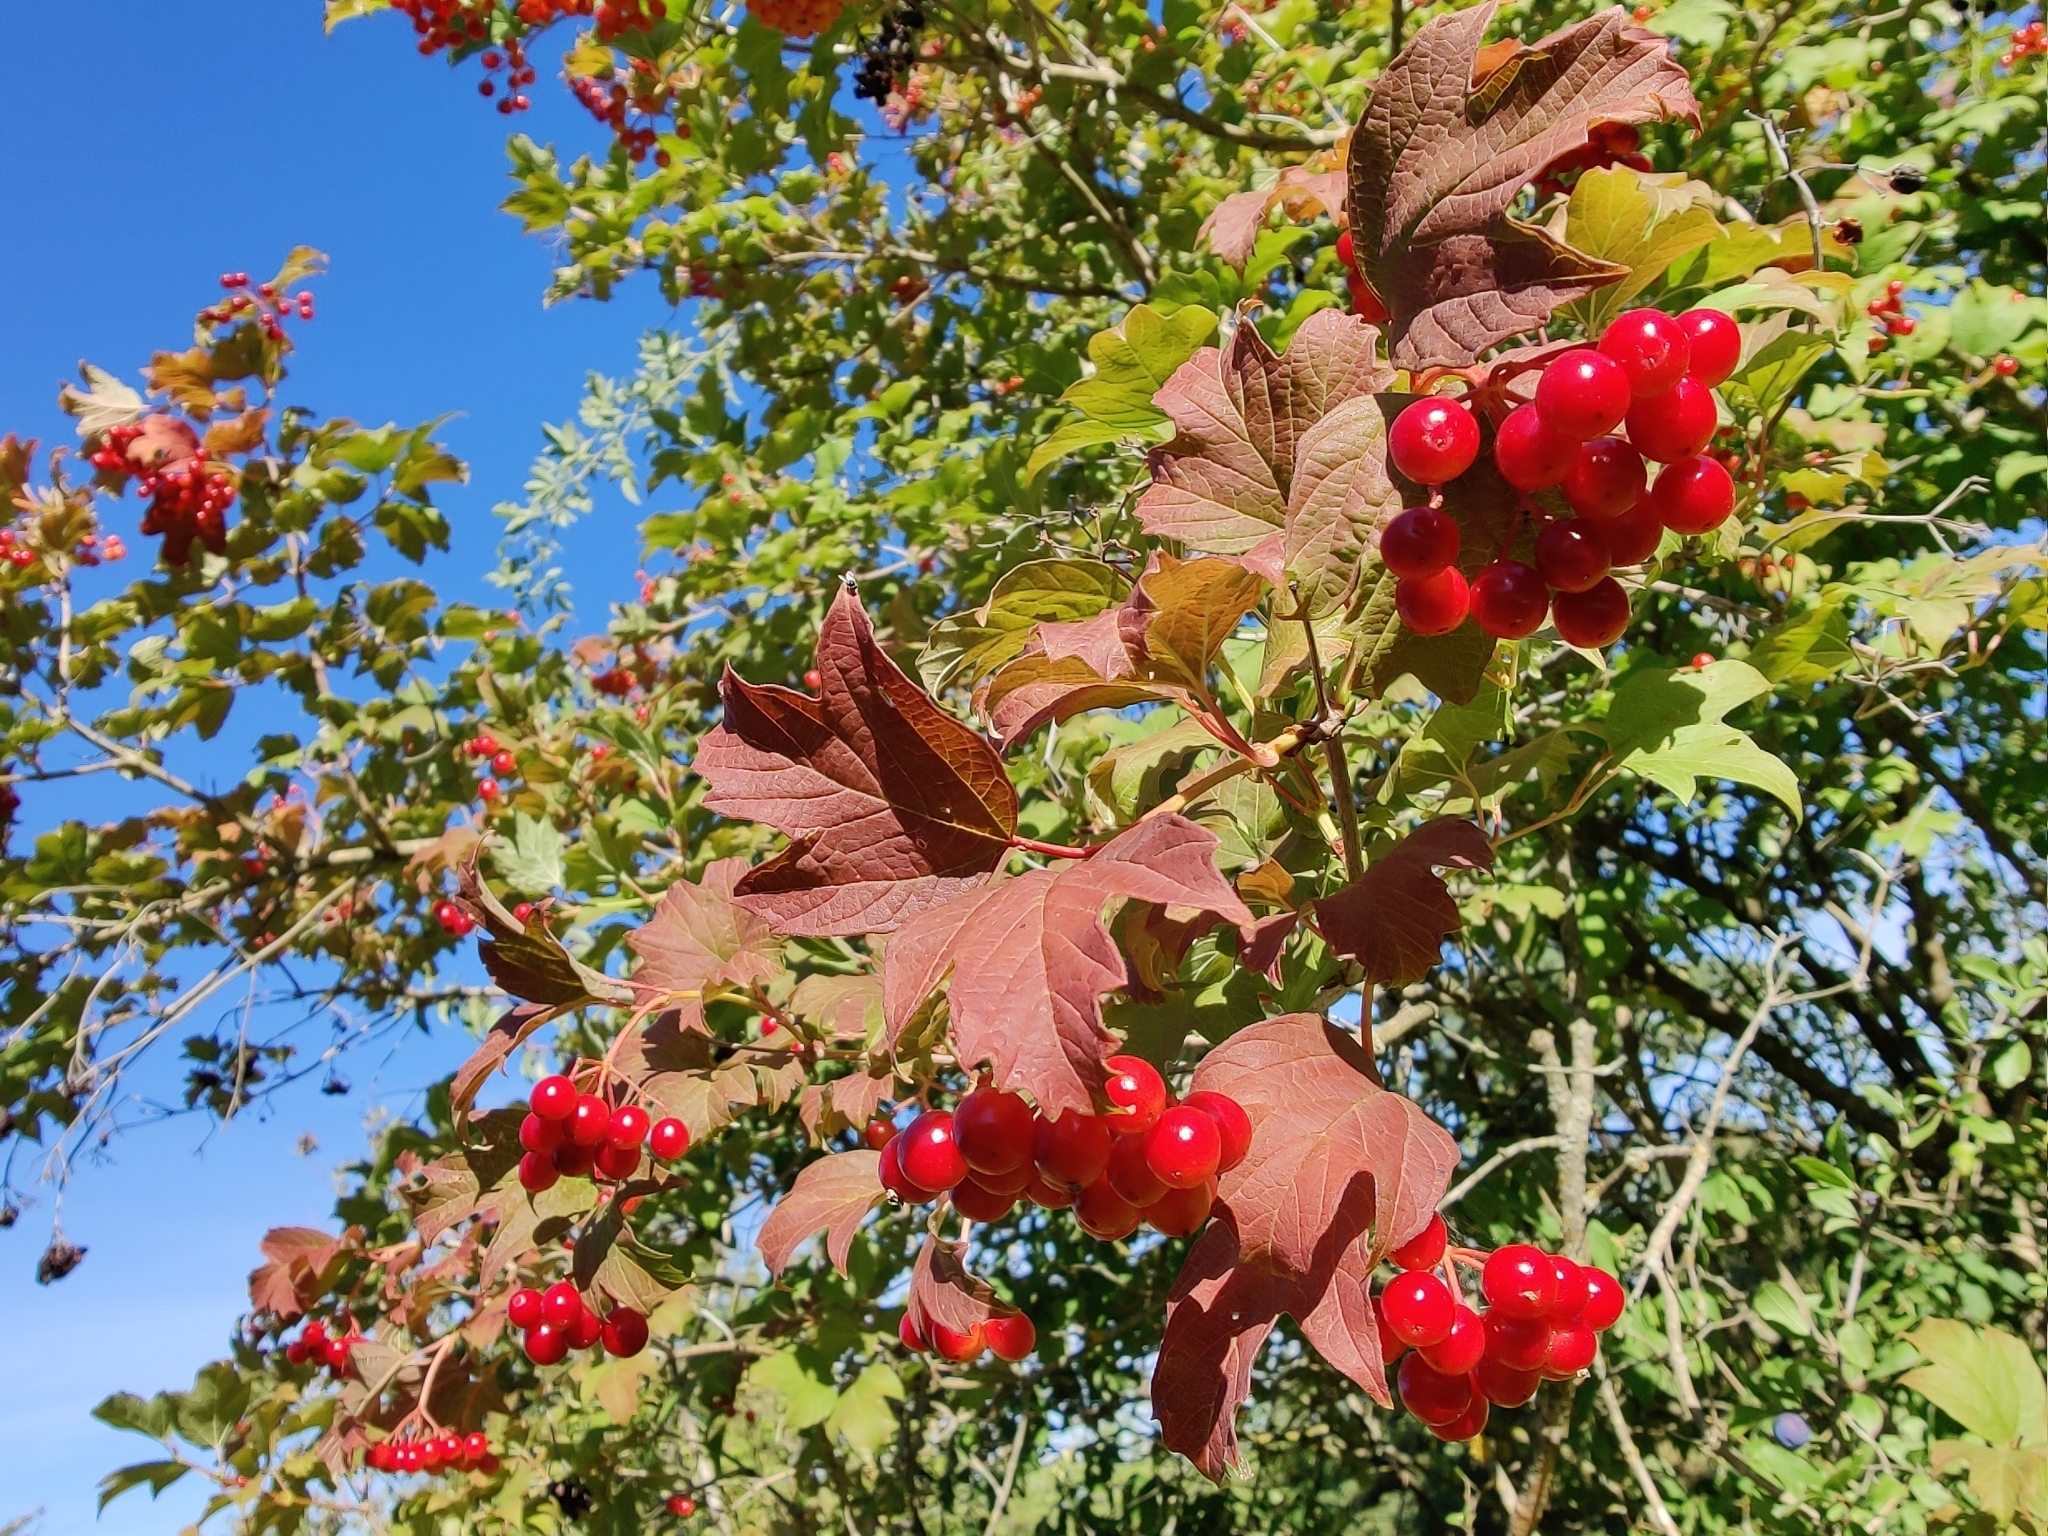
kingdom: Plantae
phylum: Tracheophyta
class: Magnoliopsida
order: Dipsacales
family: Viburnaceae
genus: Viburnum
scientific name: Viburnum opulus
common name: Guelder-rose
